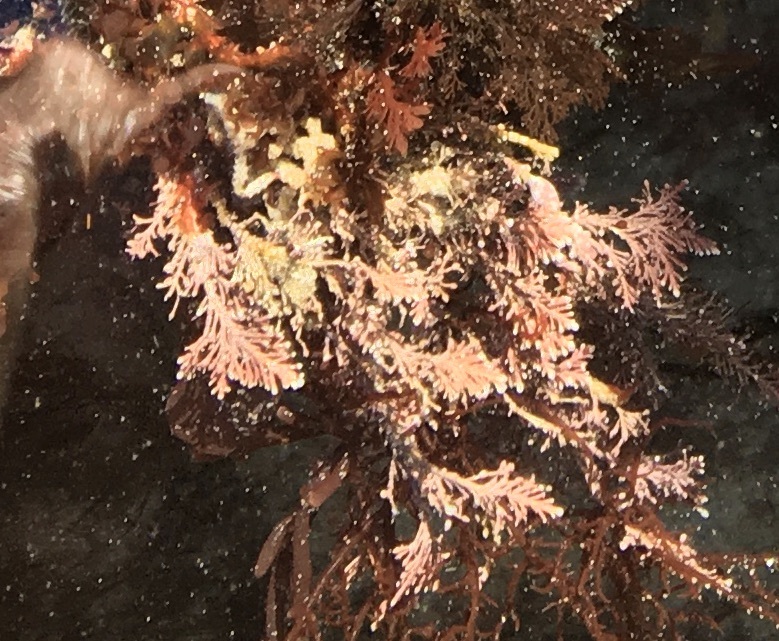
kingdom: Plantae
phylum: Rhodophyta
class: Florideophyceae
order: Corallinales
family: Corallinaceae
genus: Corallina
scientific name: Corallina officinalis
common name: Coral weed
